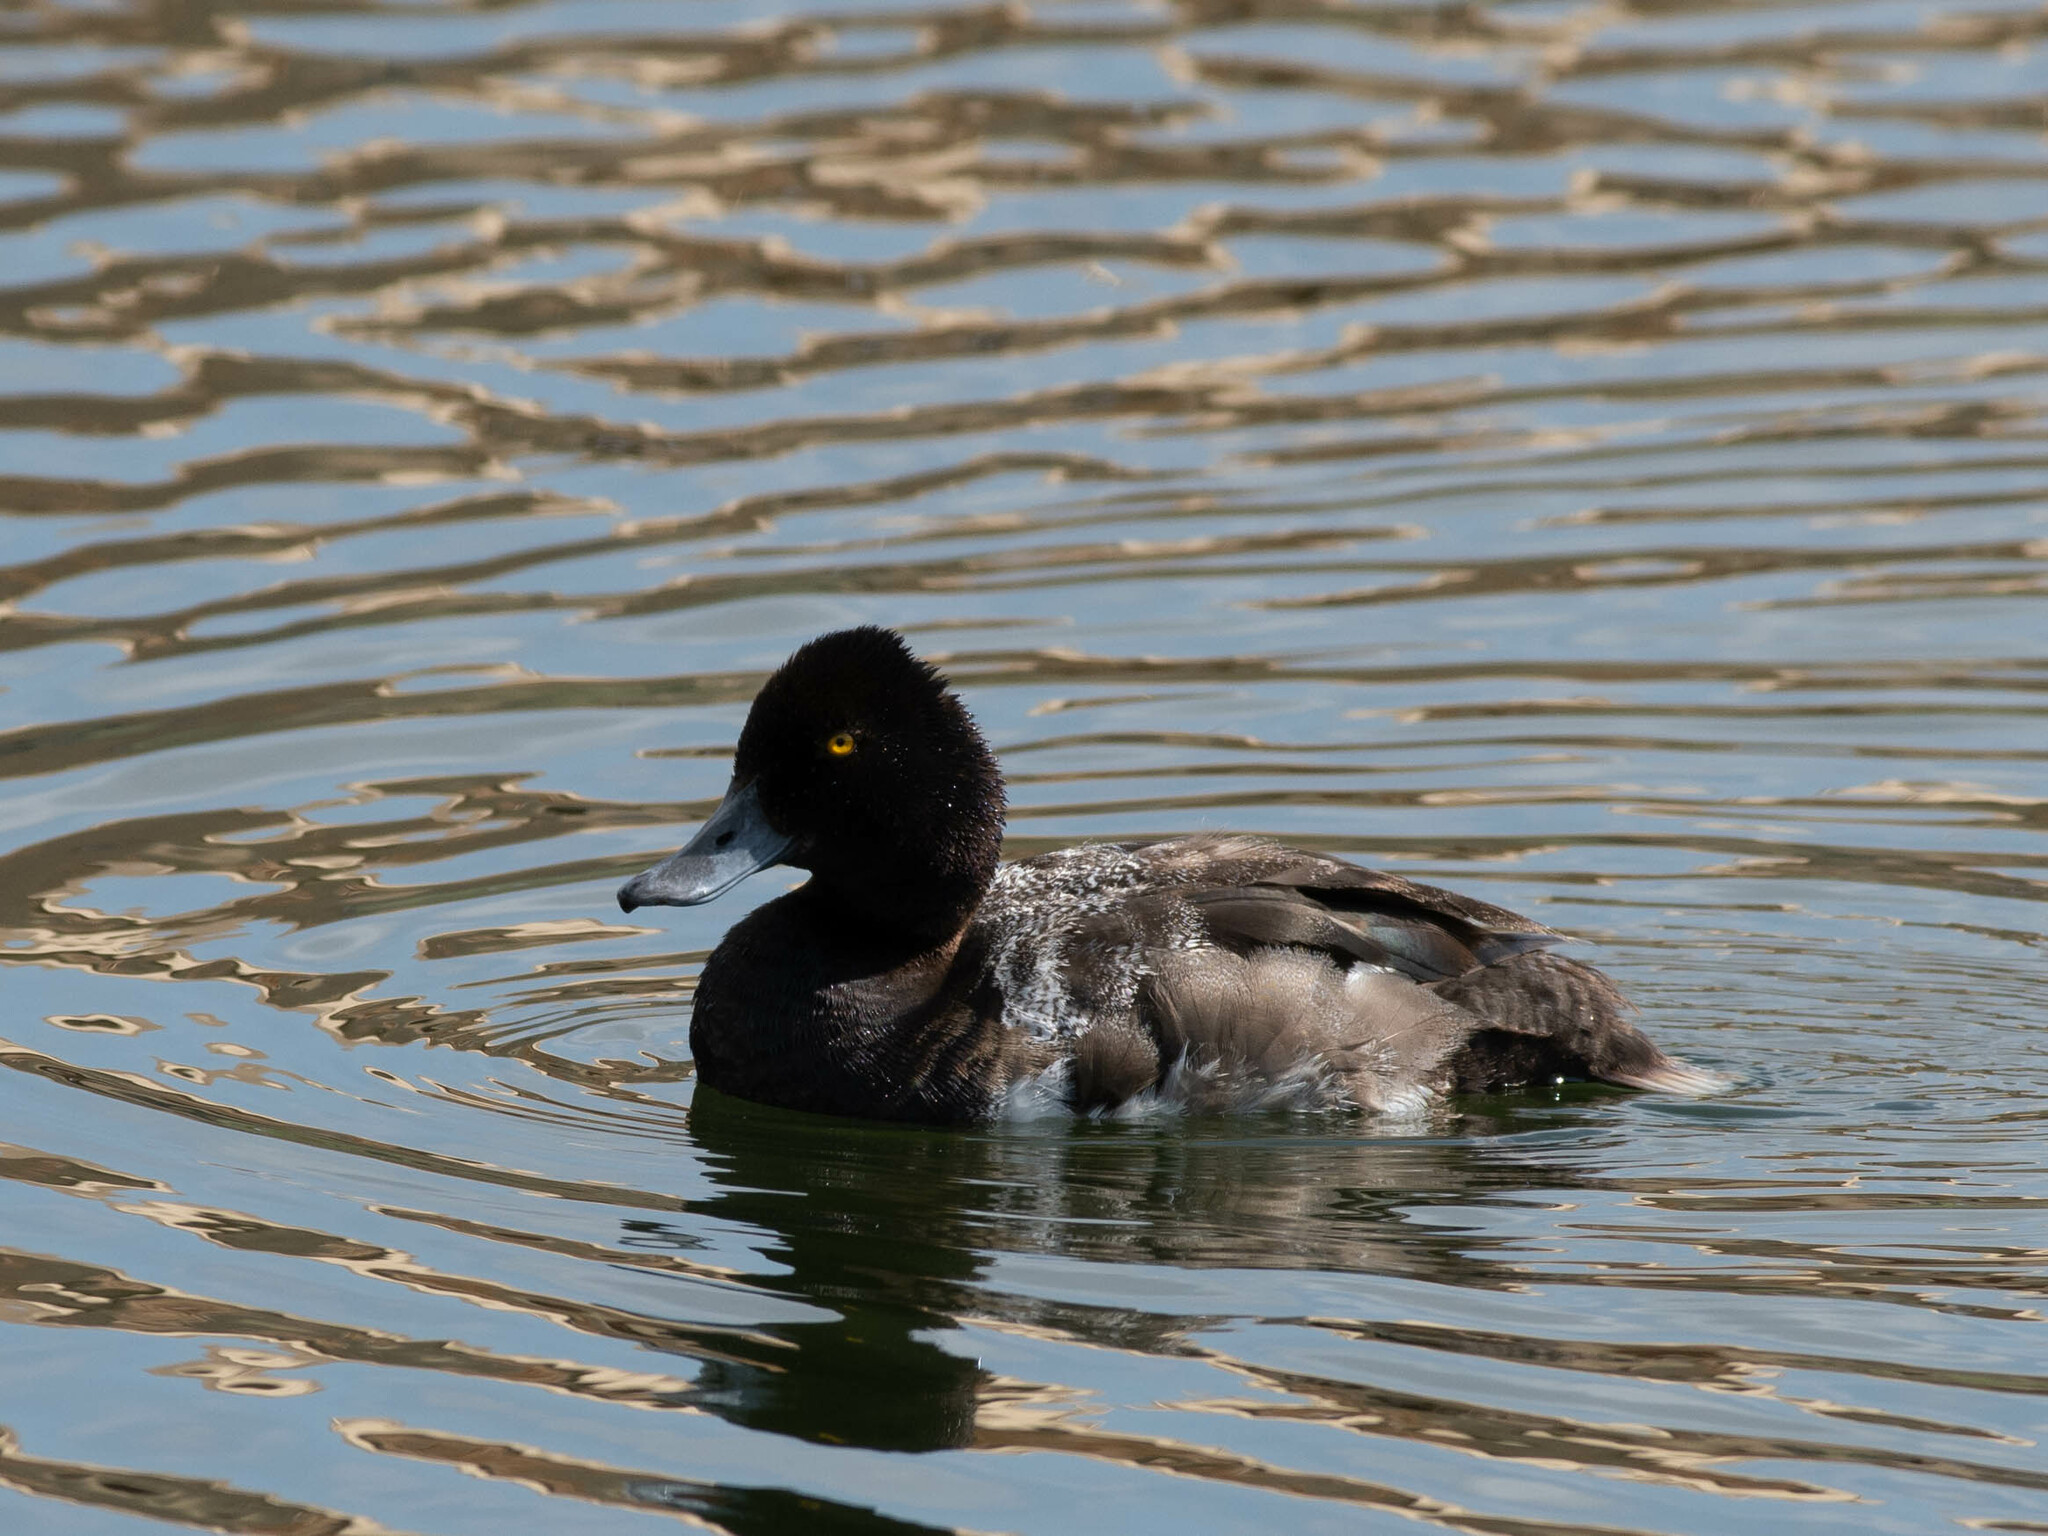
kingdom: Animalia
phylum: Chordata
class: Aves
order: Anseriformes
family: Anatidae
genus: Aythya
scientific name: Aythya affinis
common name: Lesser scaup
